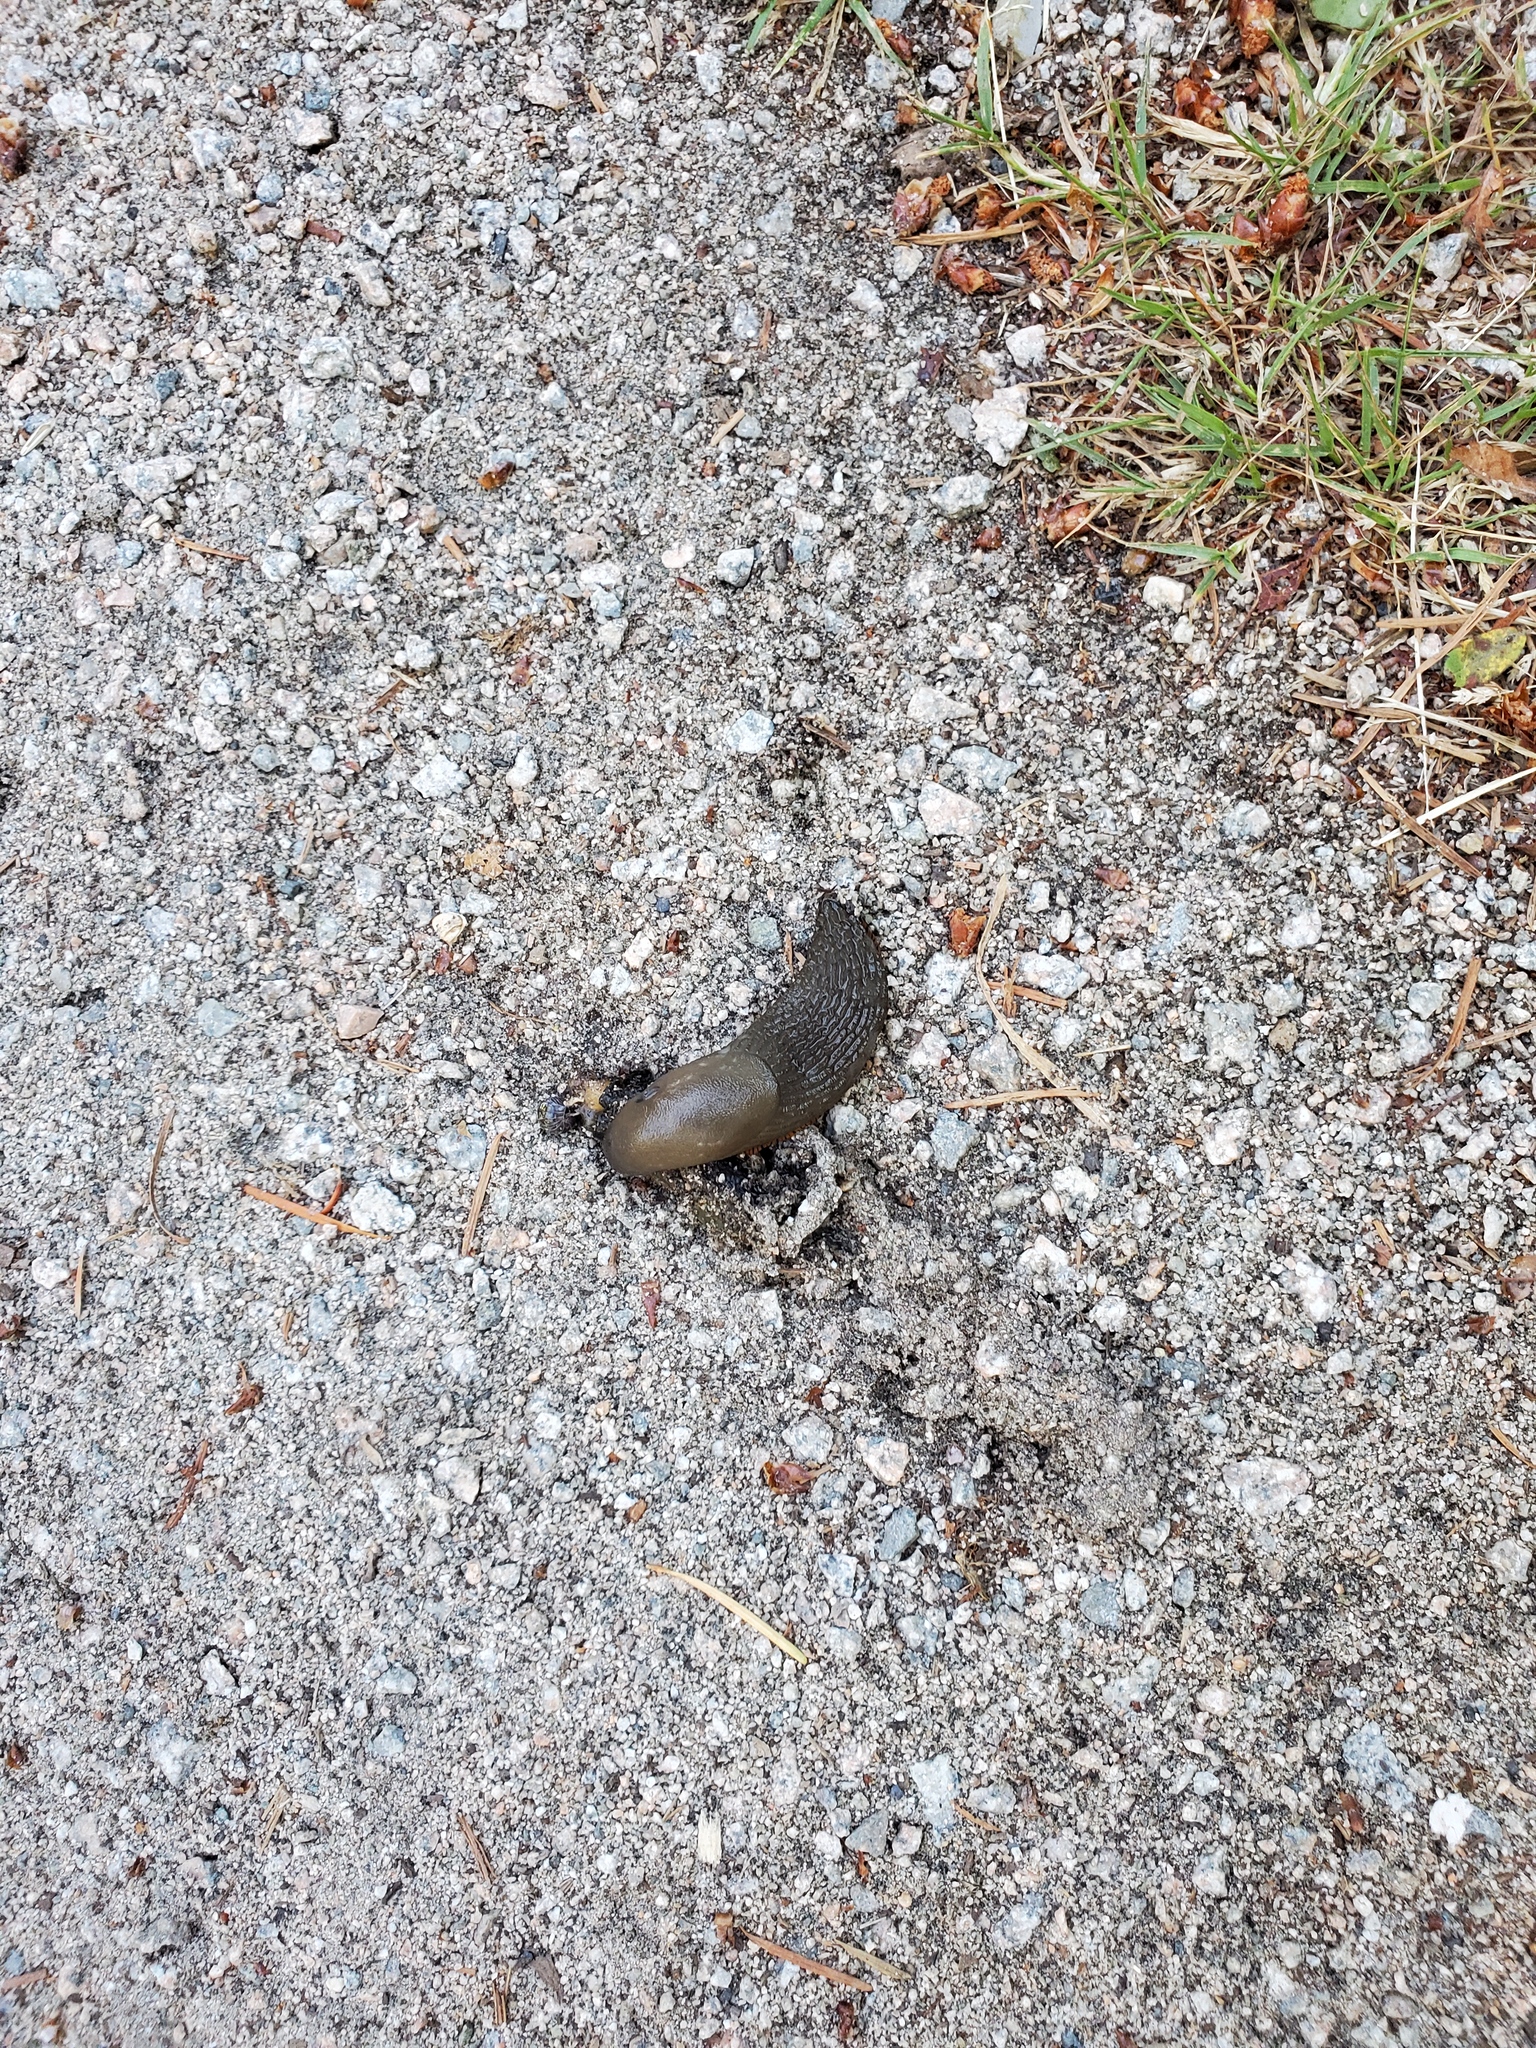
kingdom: Animalia
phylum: Mollusca
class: Gastropoda
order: Stylommatophora
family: Arionidae
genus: Arion
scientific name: Arion
